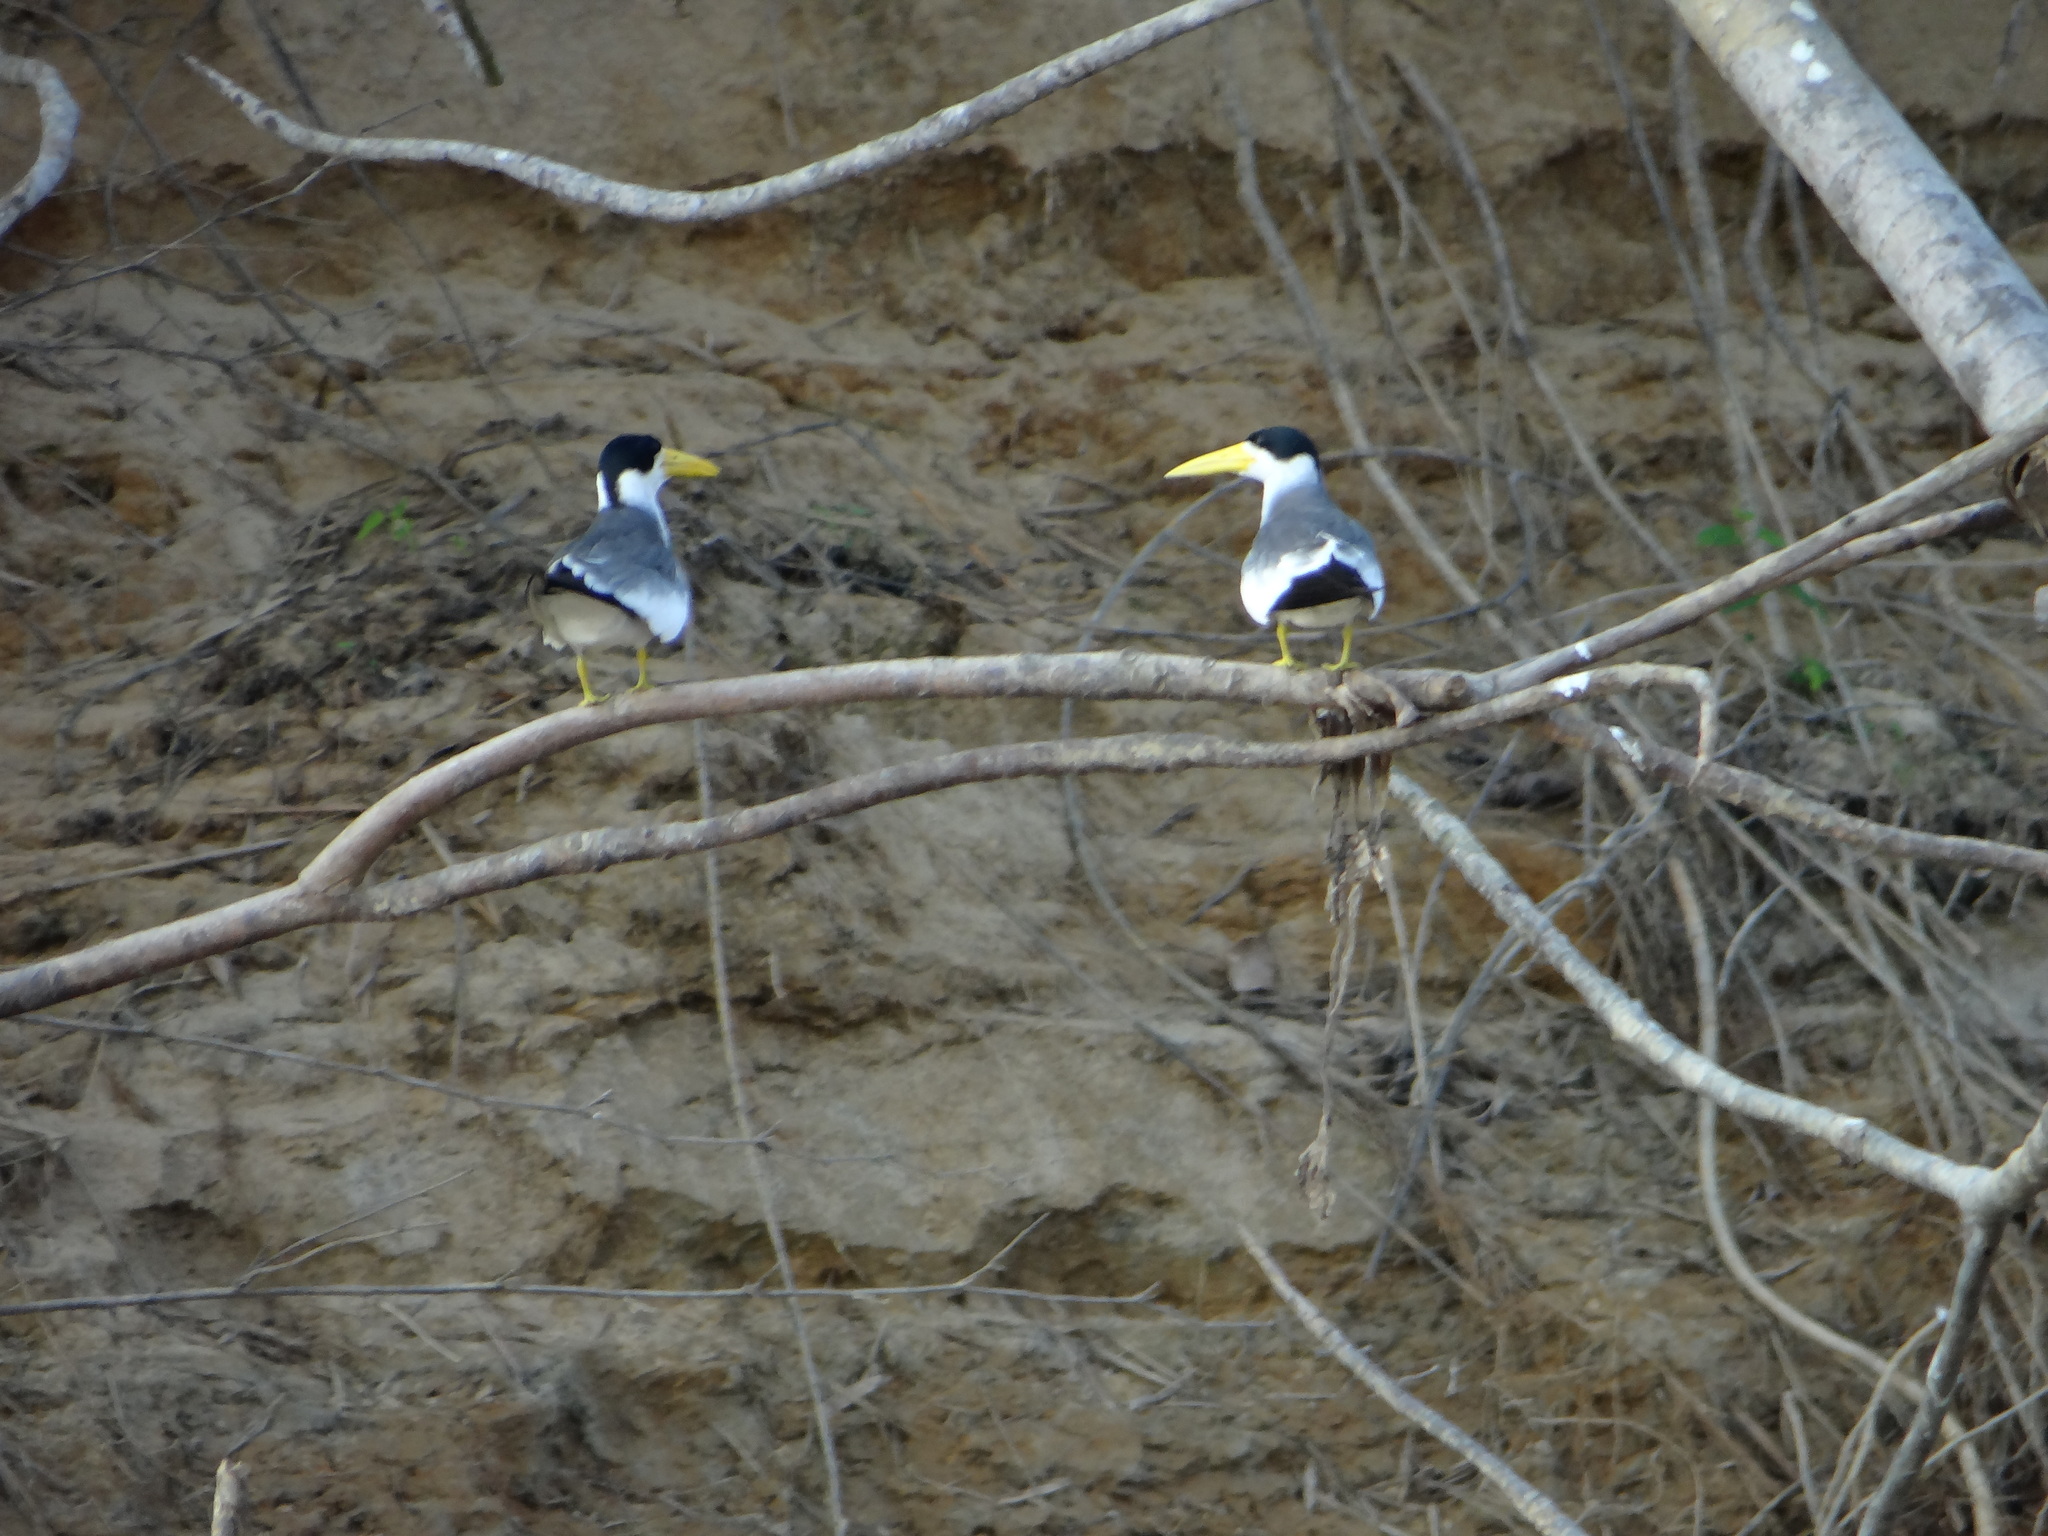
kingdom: Animalia
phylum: Chordata
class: Aves
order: Charadriiformes
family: Laridae
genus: Phaetusa
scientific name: Phaetusa simplex
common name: Large-billed tern
